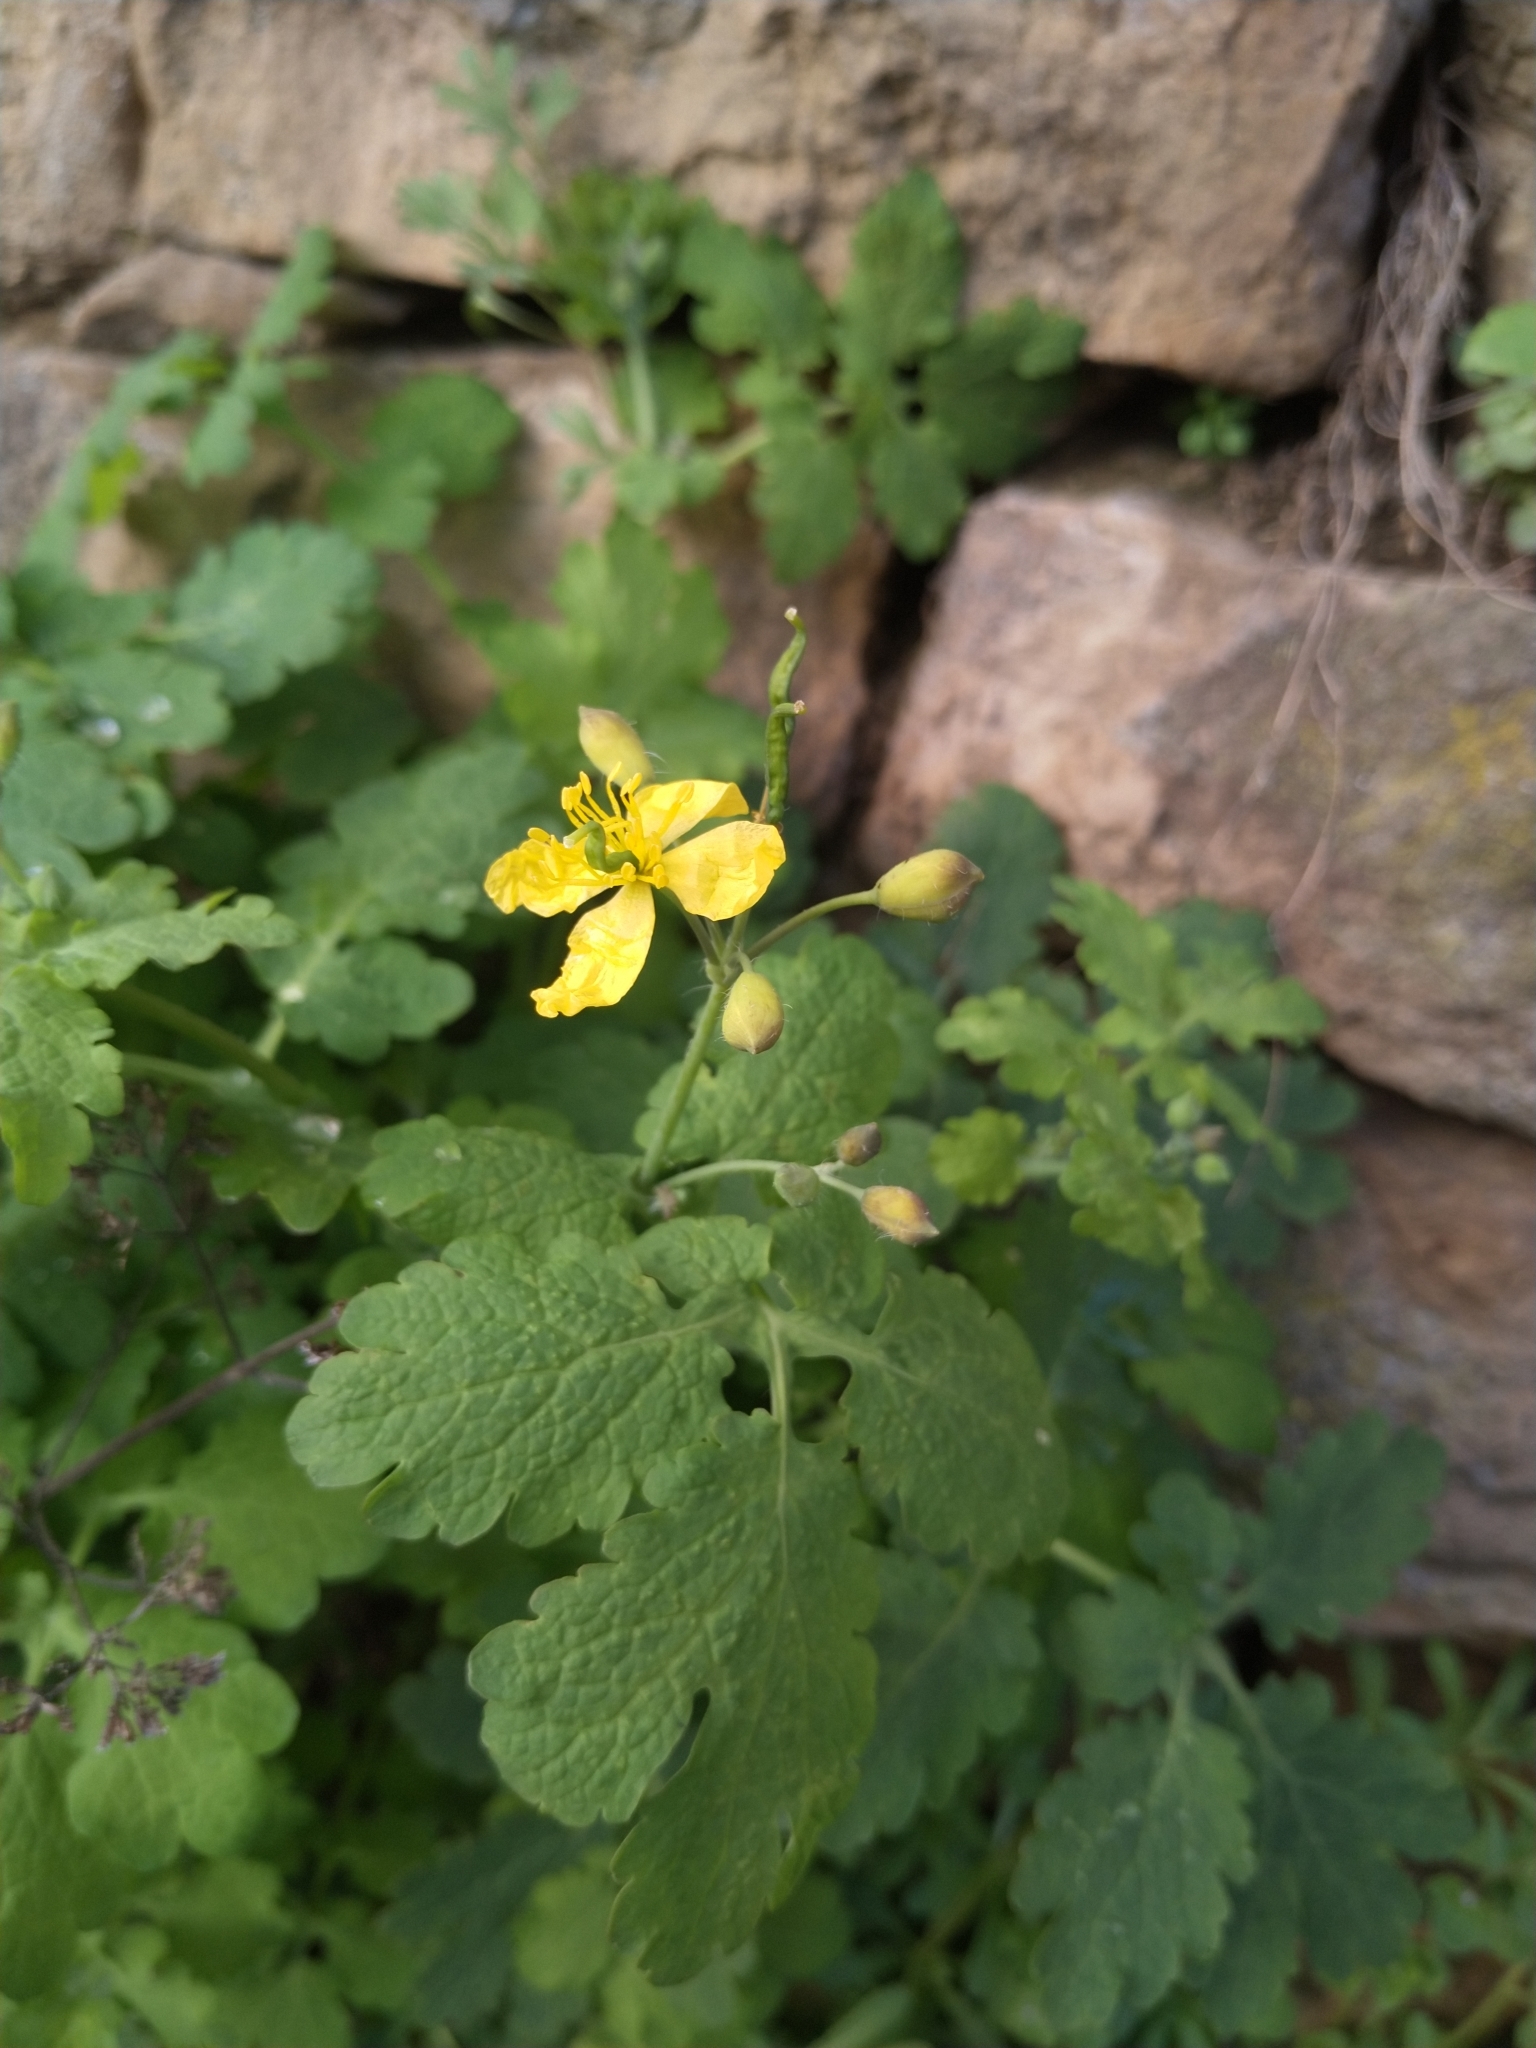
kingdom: Plantae
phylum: Tracheophyta
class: Magnoliopsida
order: Ranunculales
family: Papaveraceae
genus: Chelidonium
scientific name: Chelidonium majus
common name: Greater celandine
